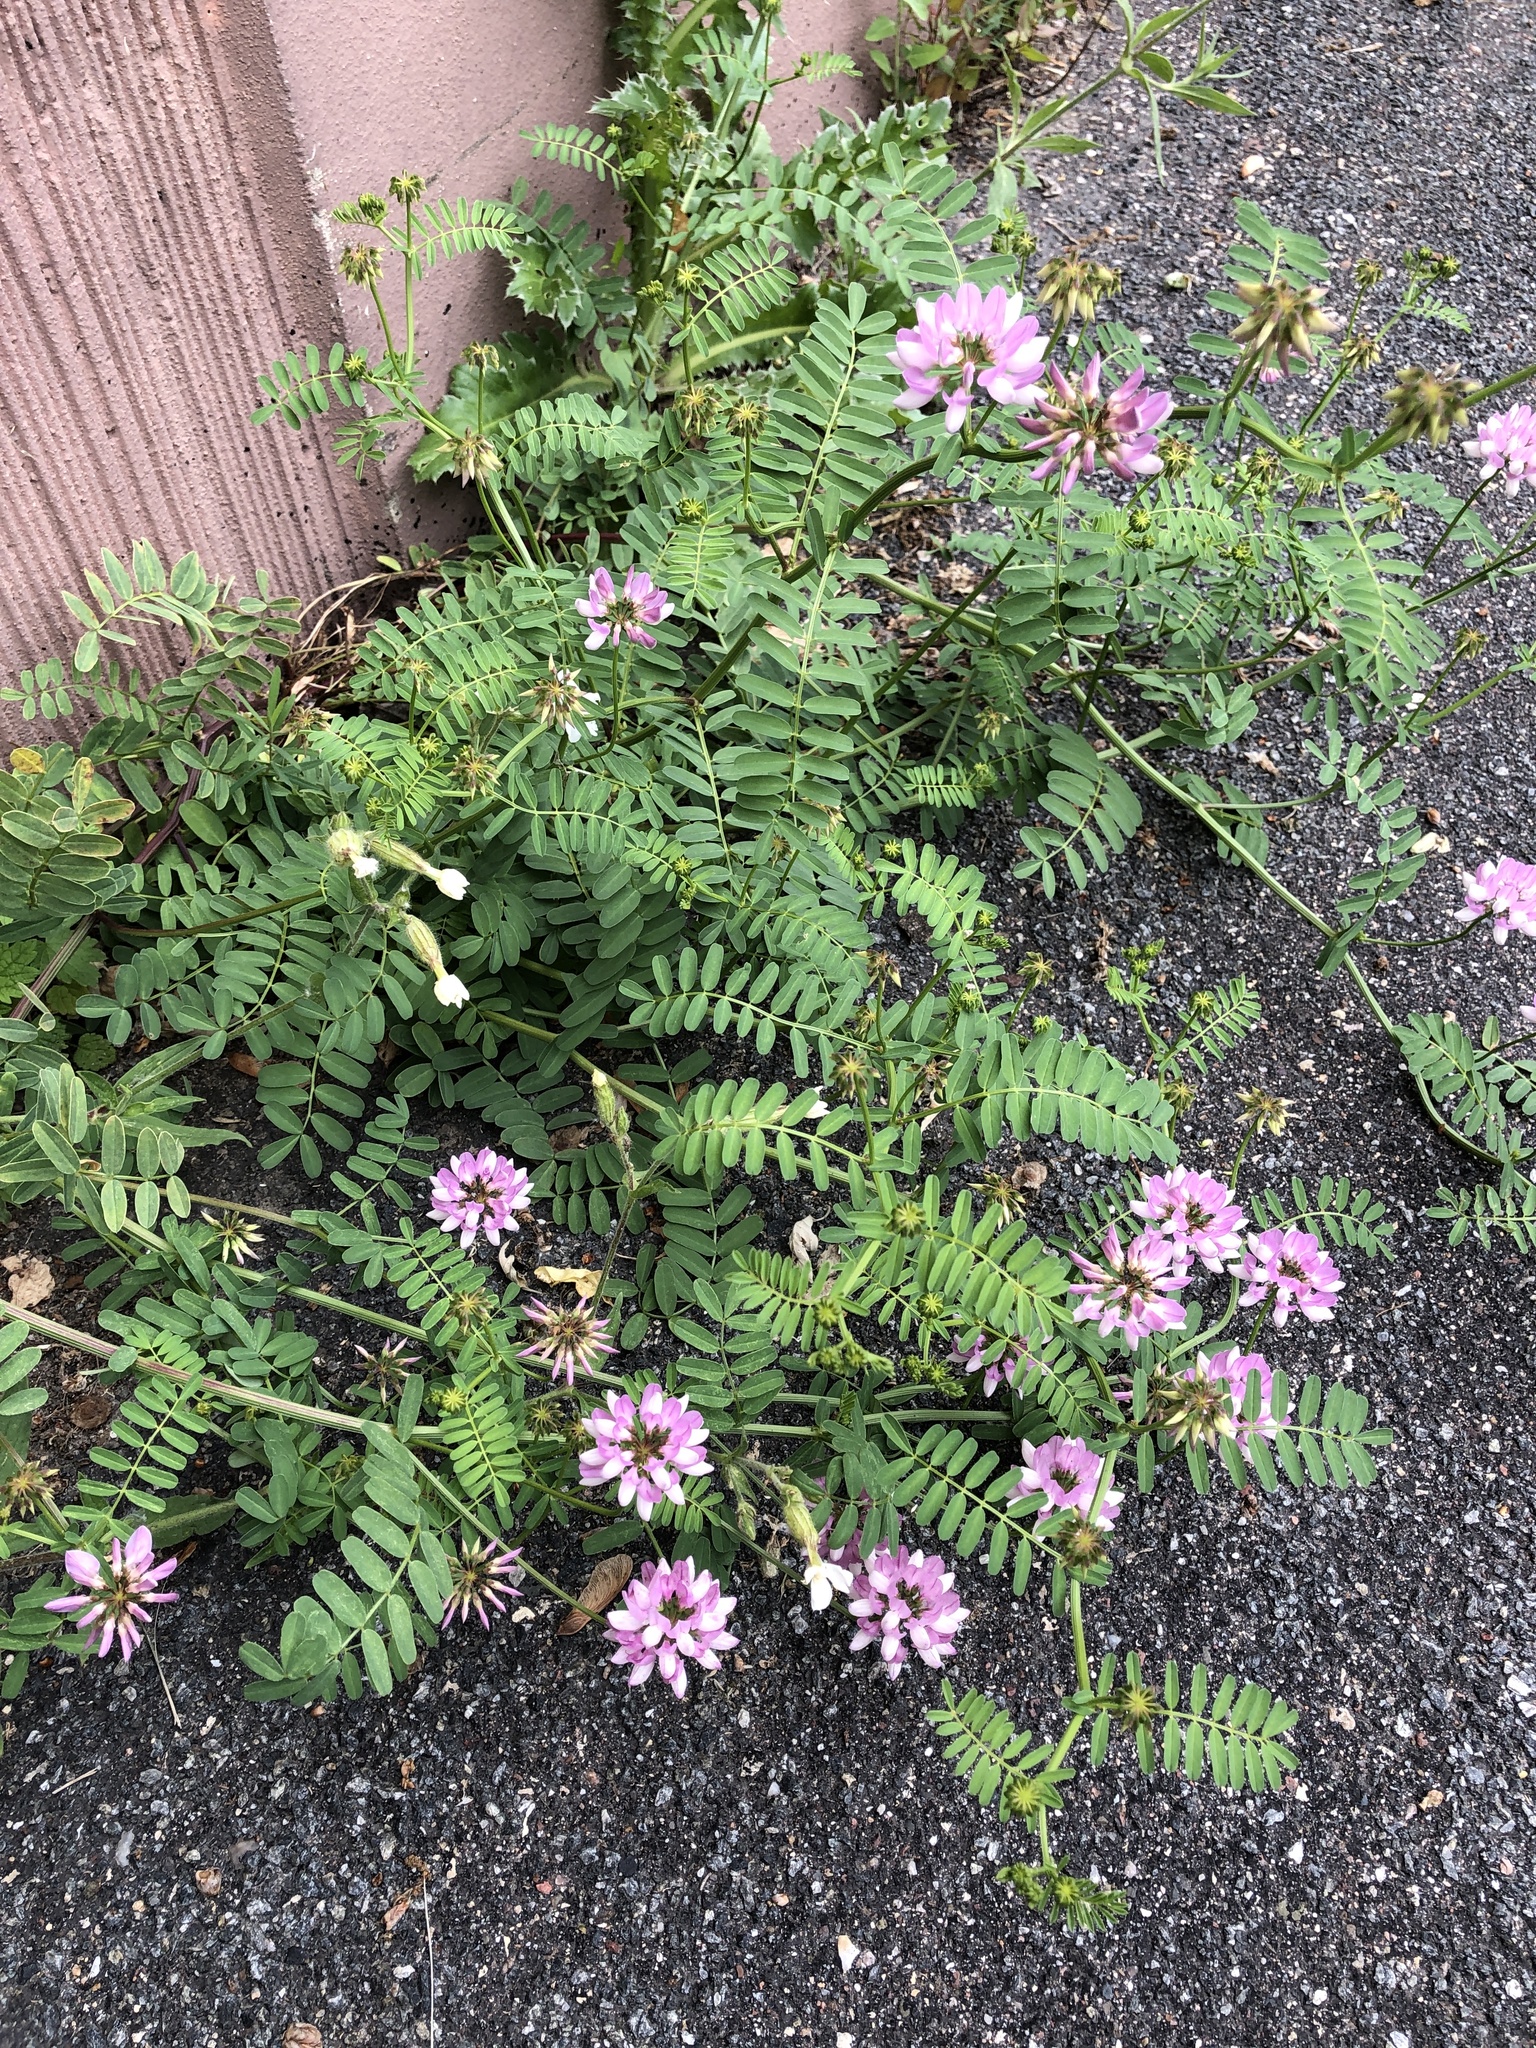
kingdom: Plantae
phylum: Tracheophyta
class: Magnoliopsida
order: Fabales
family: Fabaceae
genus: Coronilla
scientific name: Coronilla varia
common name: Crownvetch
